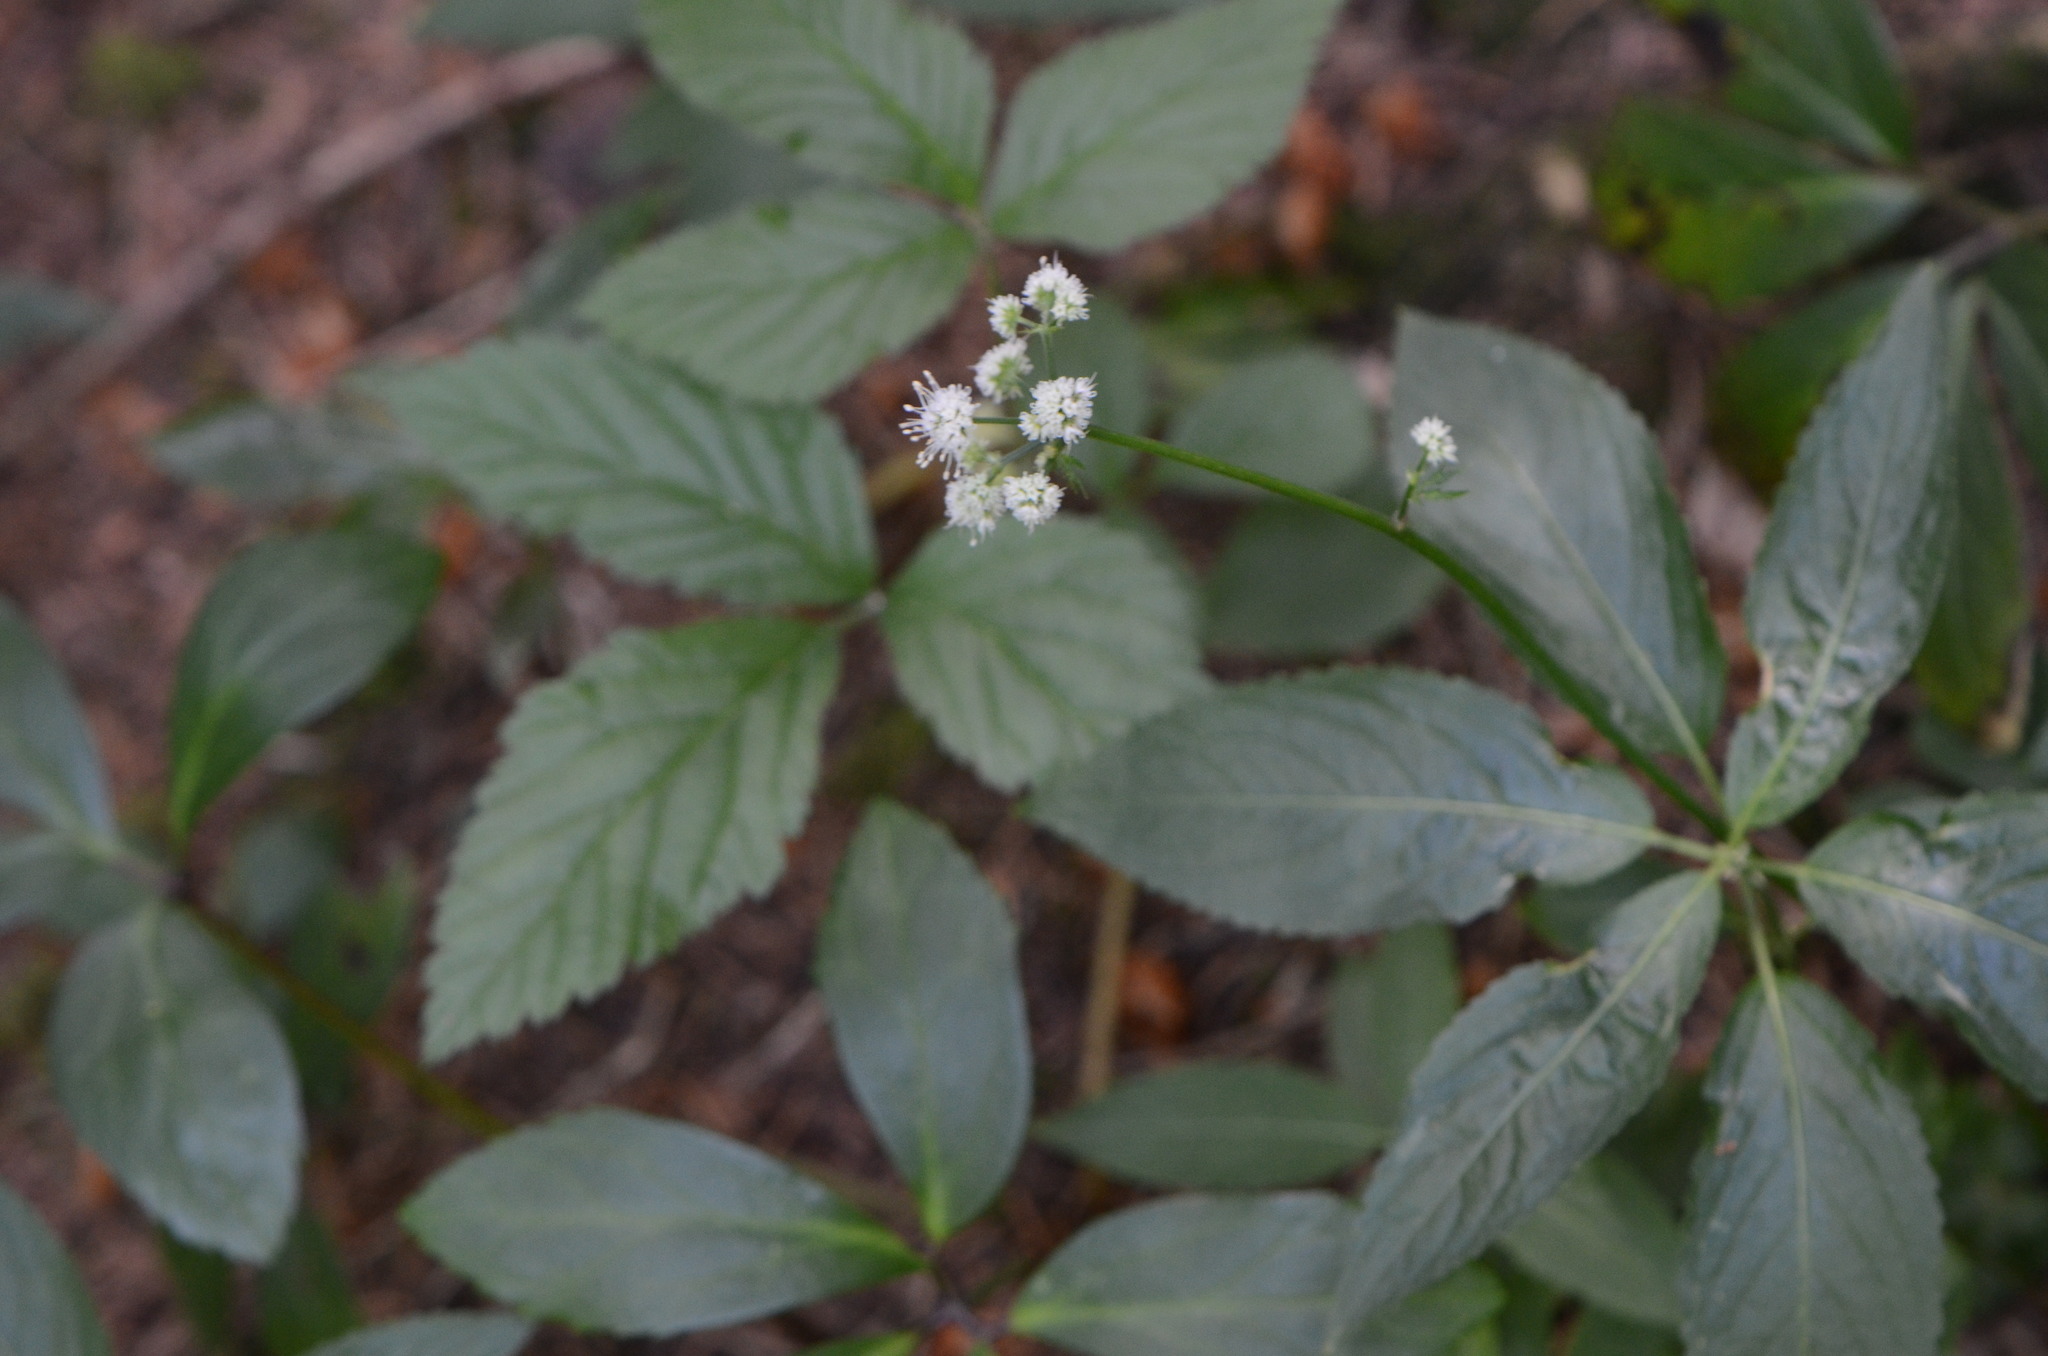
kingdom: Plantae
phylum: Tracheophyta
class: Magnoliopsida
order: Apiales
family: Apiaceae
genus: Sanicula
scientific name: Sanicula europaea
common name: Sanicle
